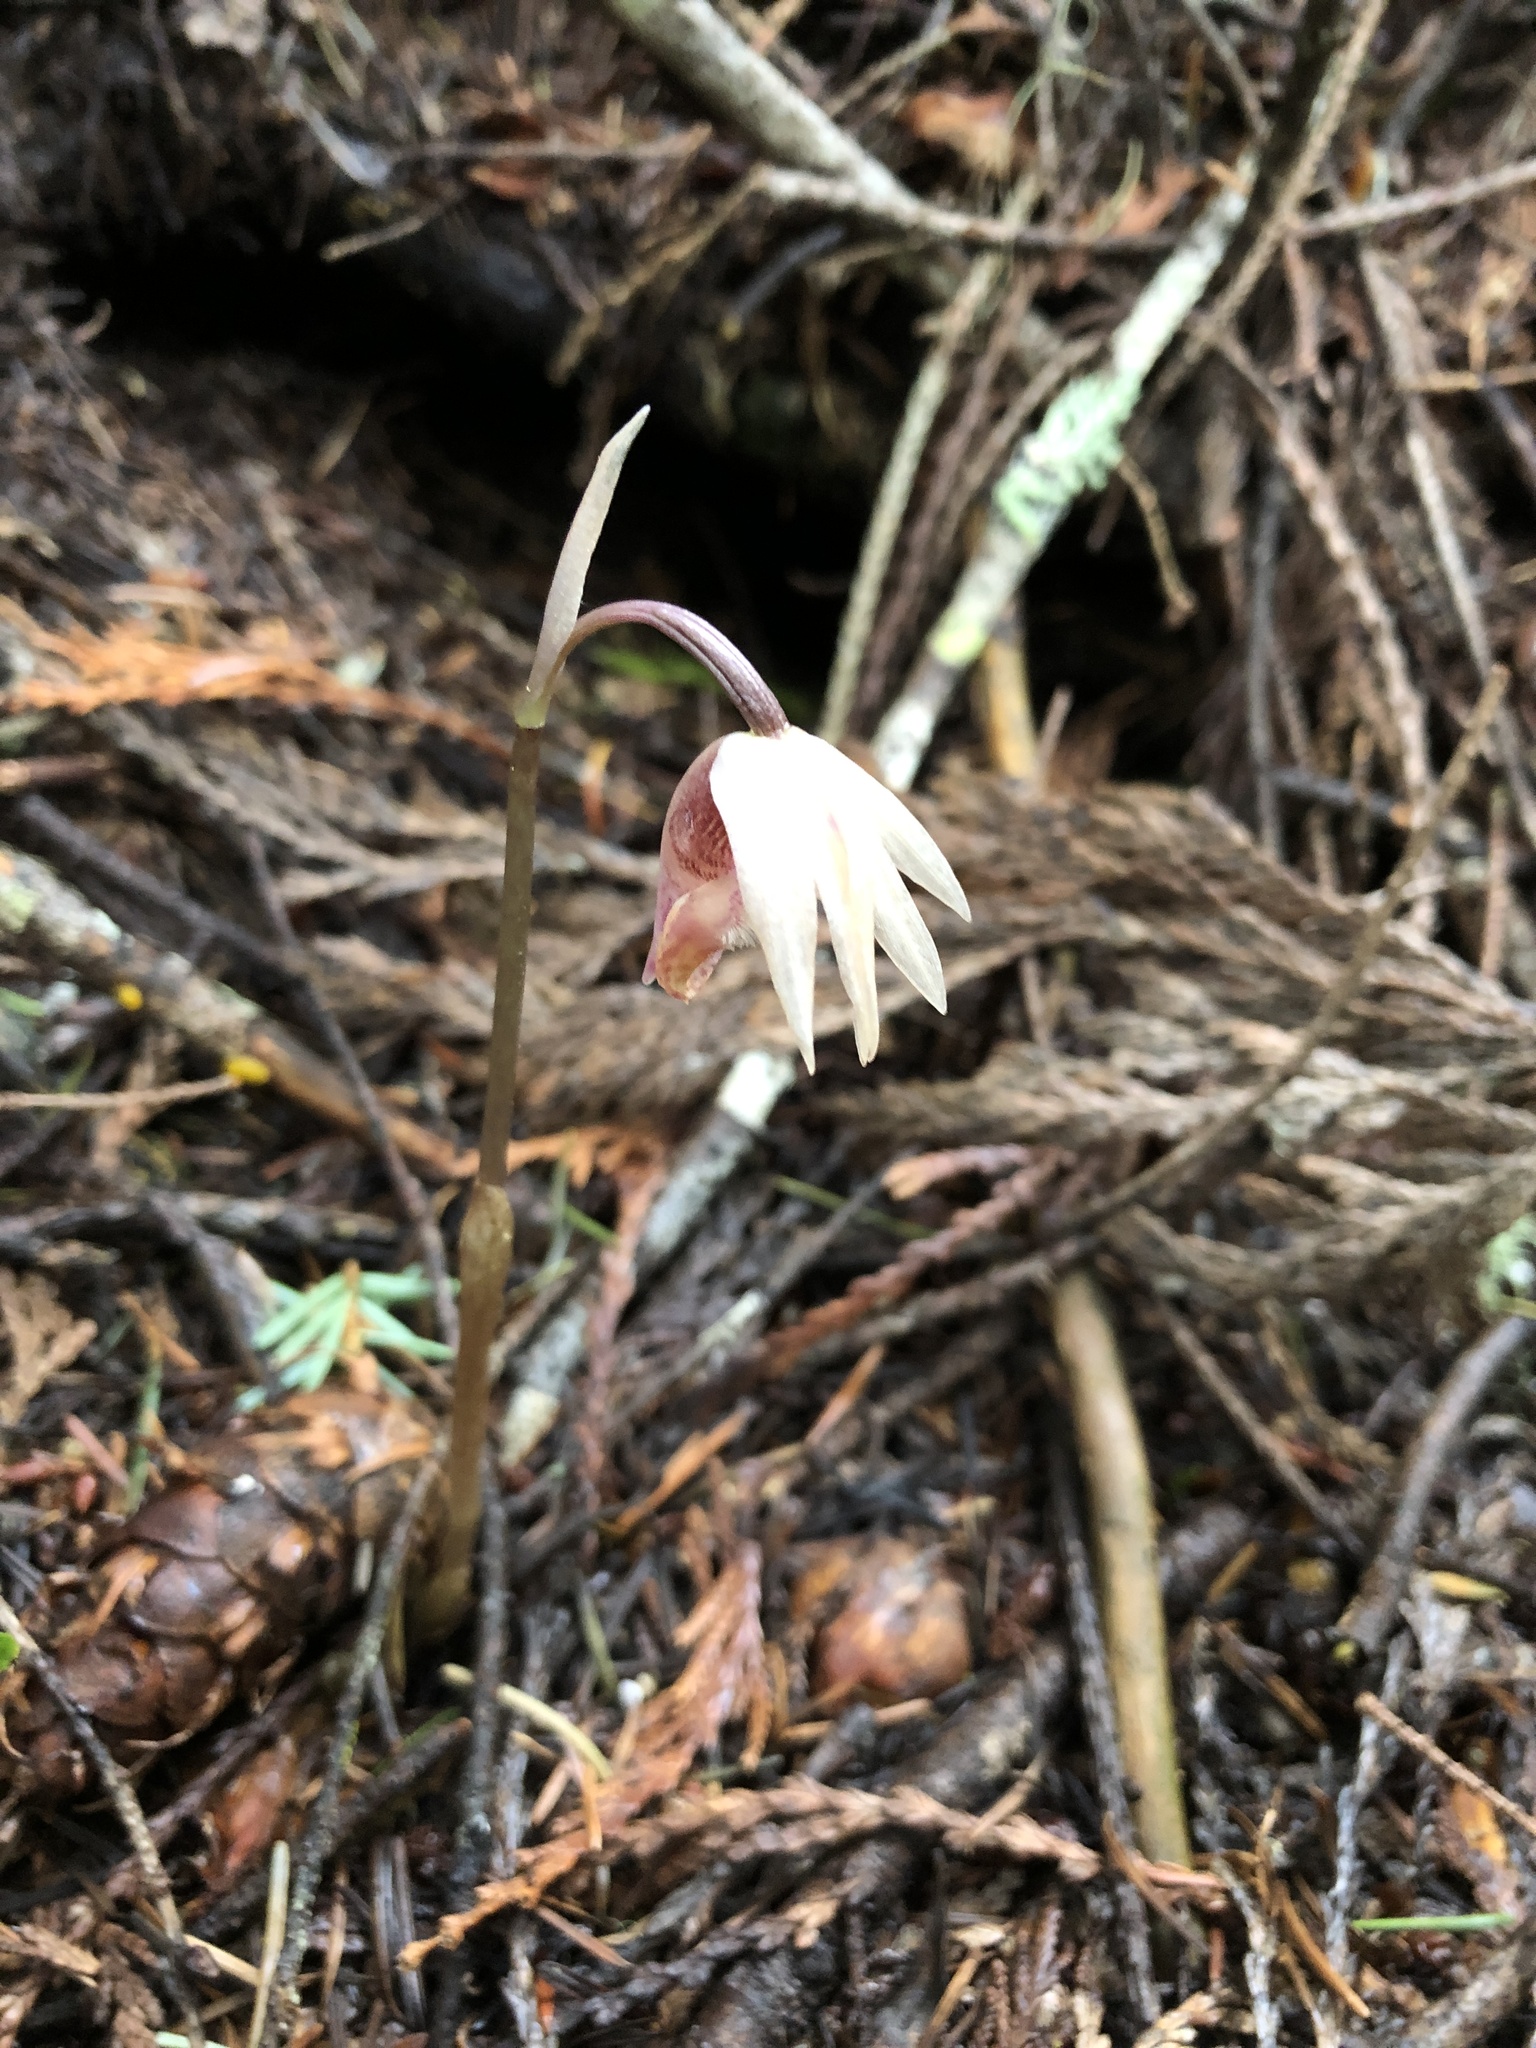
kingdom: Plantae
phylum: Tracheophyta
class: Liliopsida
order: Asparagales
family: Orchidaceae
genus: Calypso
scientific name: Calypso bulbosa
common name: Calypso
